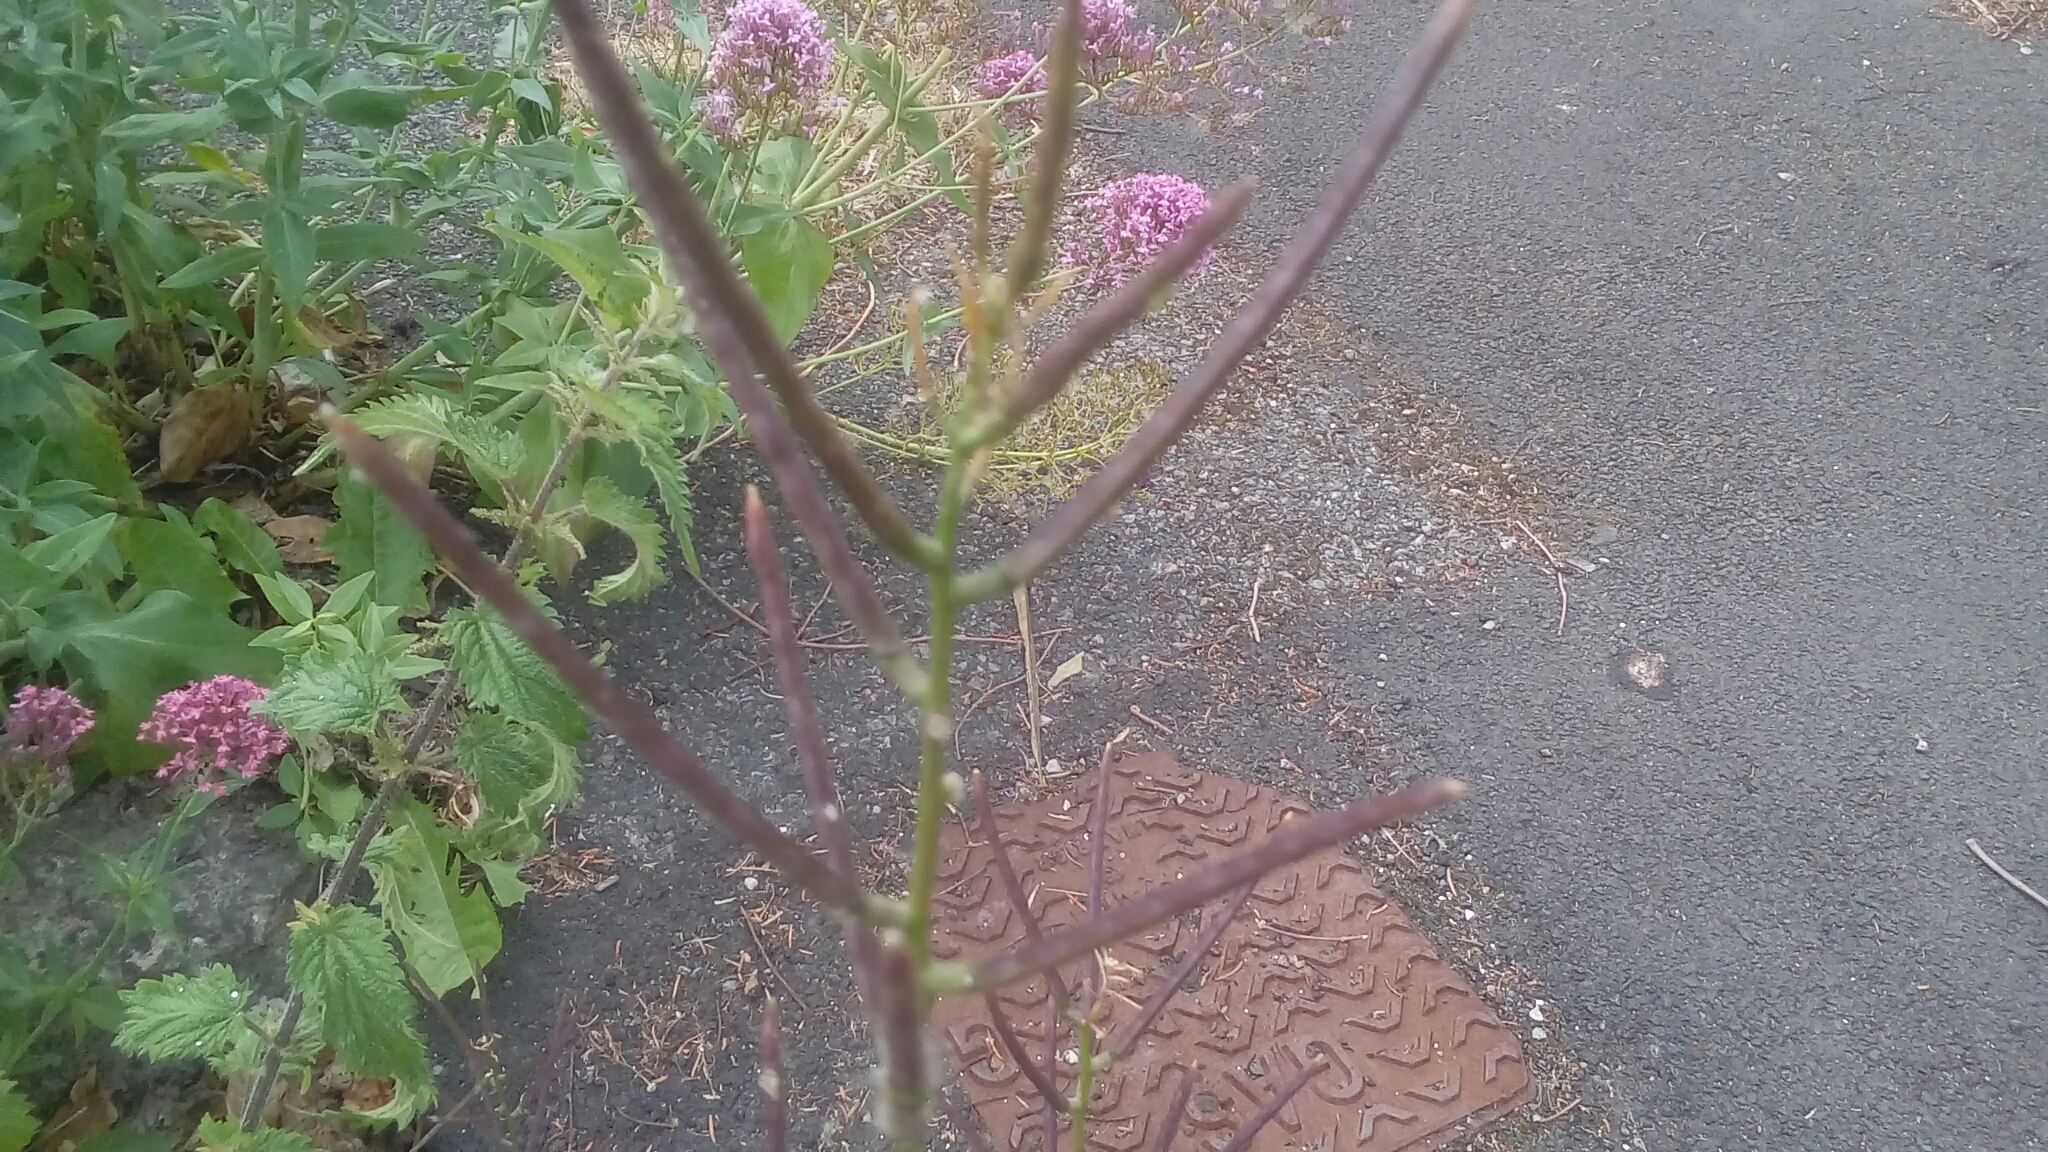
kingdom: Plantae
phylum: Tracheophyta
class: Magnoliopsida
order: Brassicales
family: Brassicaceae
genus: Alliaria
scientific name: Alliaria petiolata
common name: Garlic mustard
